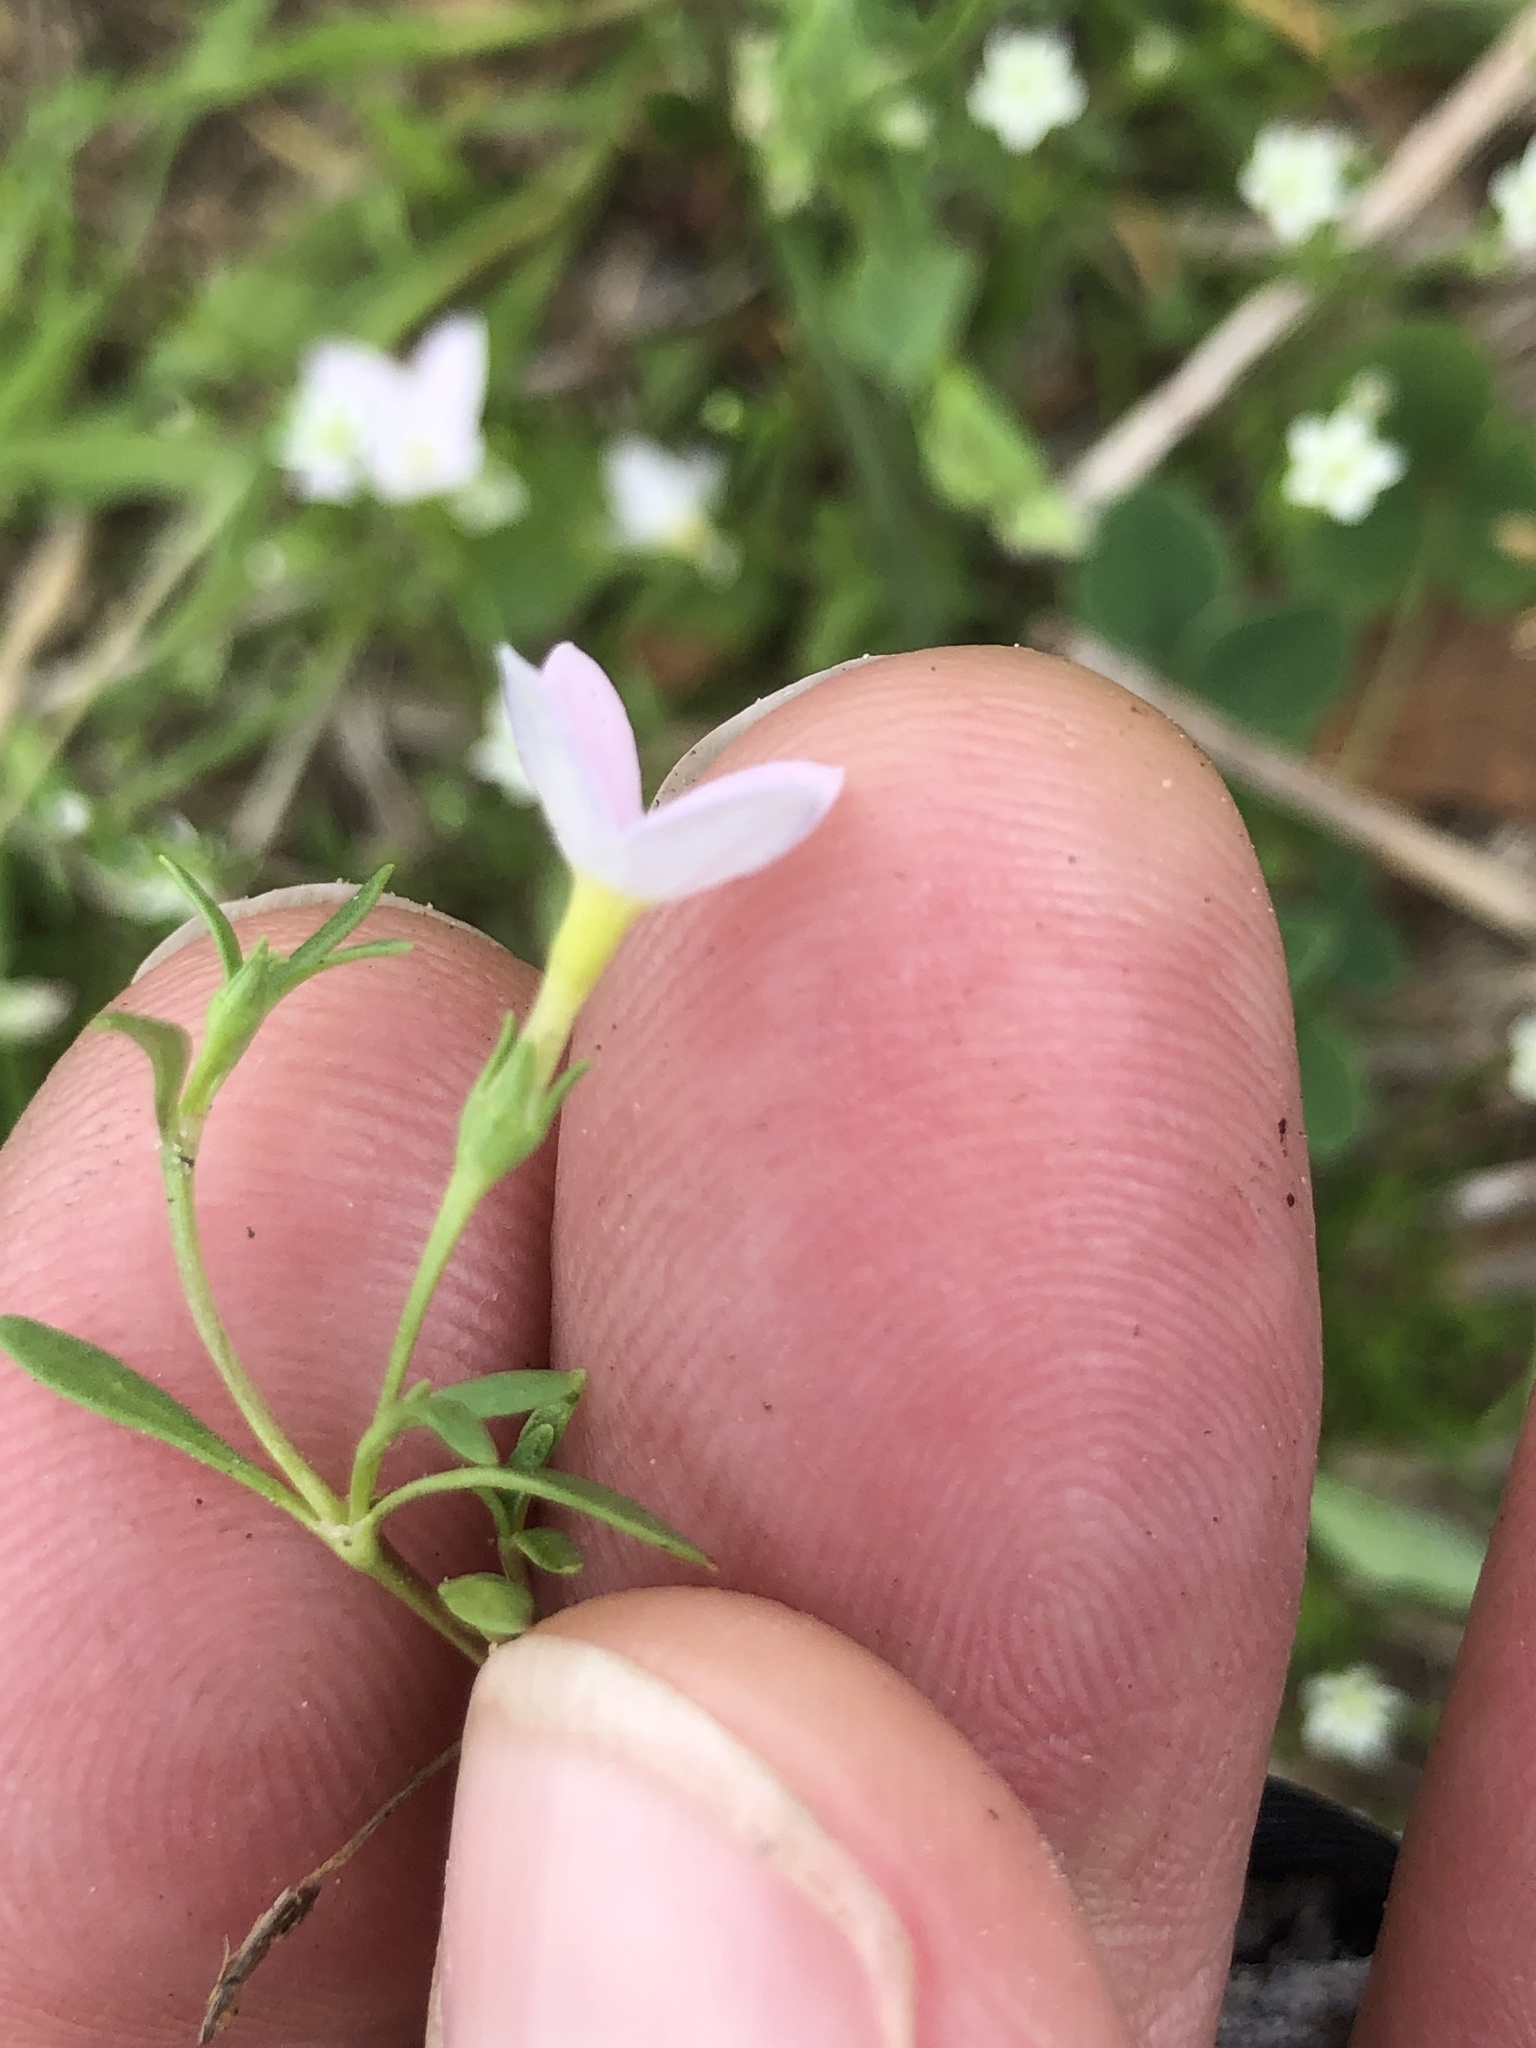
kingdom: Plantae
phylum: Tracheophyta
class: Magnoliopsida
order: Gentianales
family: Rubiaceae
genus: Houstonia
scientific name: Houstonia rosea
